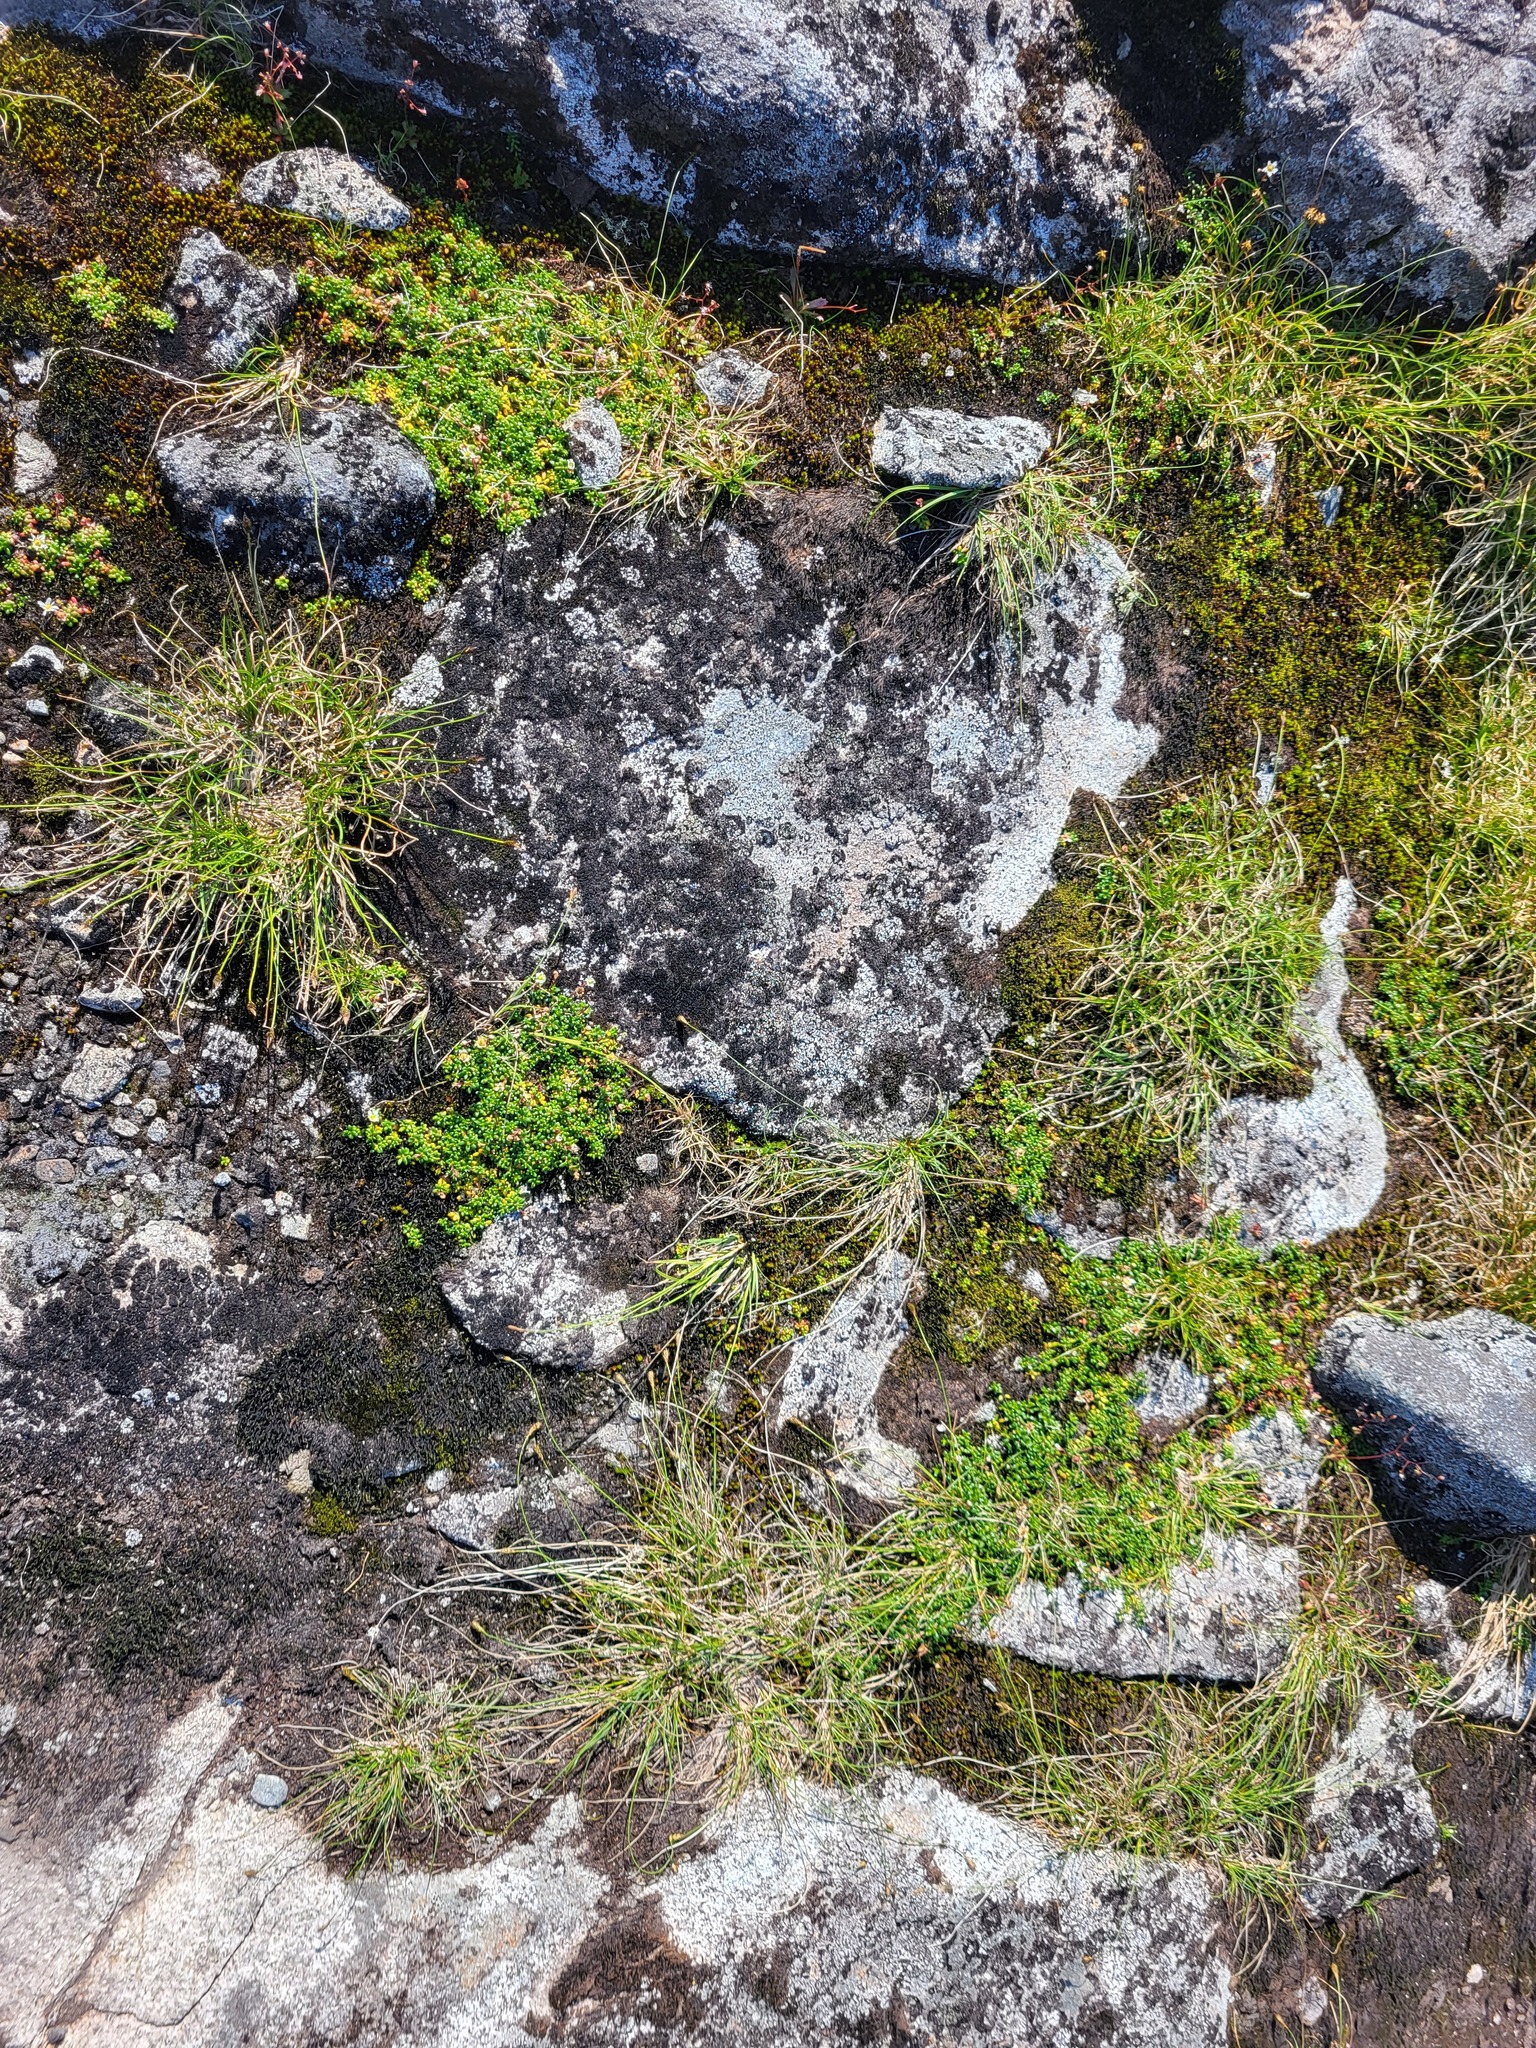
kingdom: Plantae
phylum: Tracheophyta
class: Magnoliopsida
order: Saxifragales
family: Saxifragaceae
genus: Micranthes
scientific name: Micranthes tolmiei
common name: Tolmie's saxifrage
